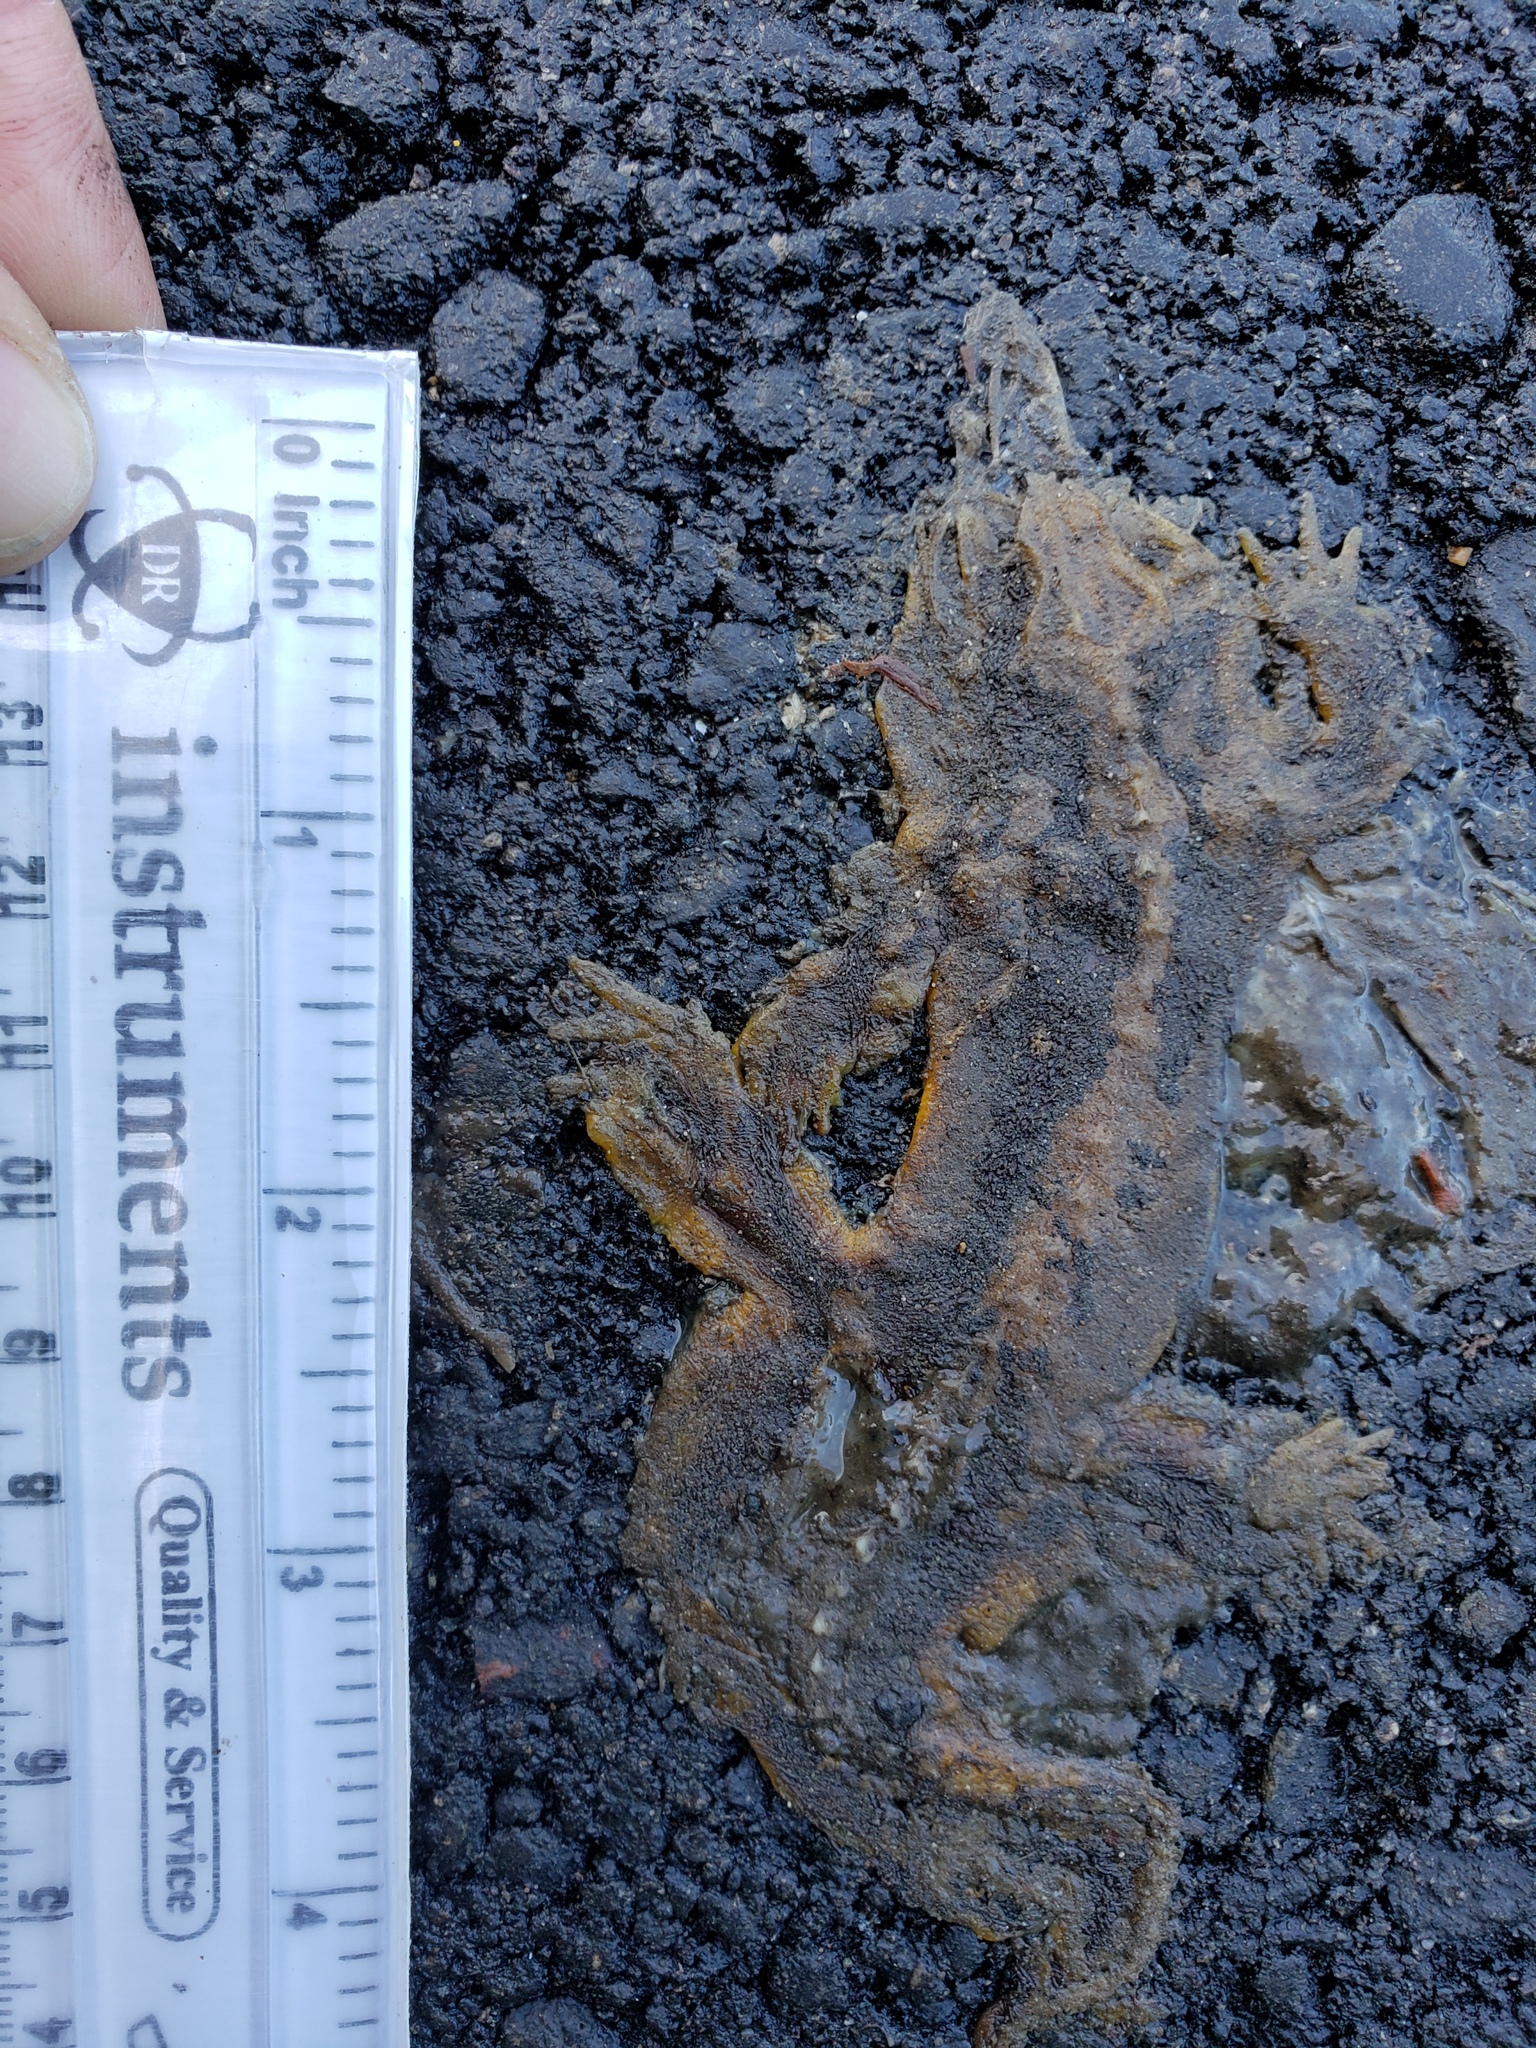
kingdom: Animalia
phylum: Chordata
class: Amphibia
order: Caudata
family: Salamandridae
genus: Taricha
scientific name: Taricha
